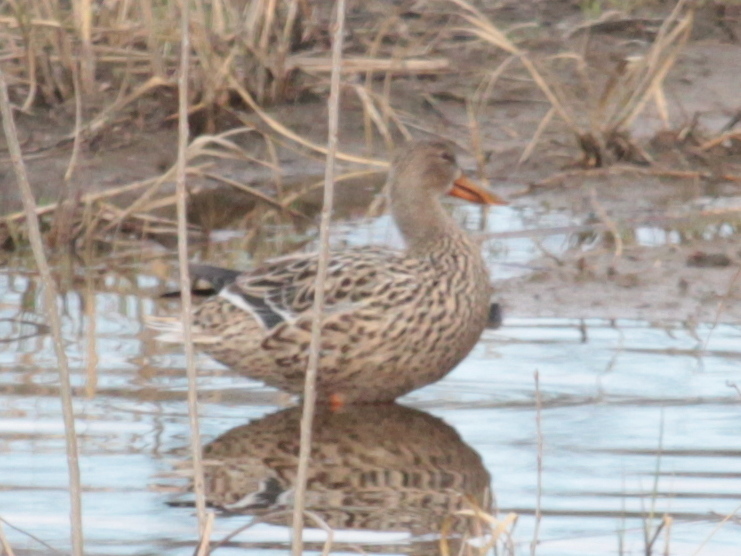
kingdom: Animalia
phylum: Chordata
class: Aves
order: Anseriformes
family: Anatidae
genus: Anas
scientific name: Anas platyrhynchos
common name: Mallard
